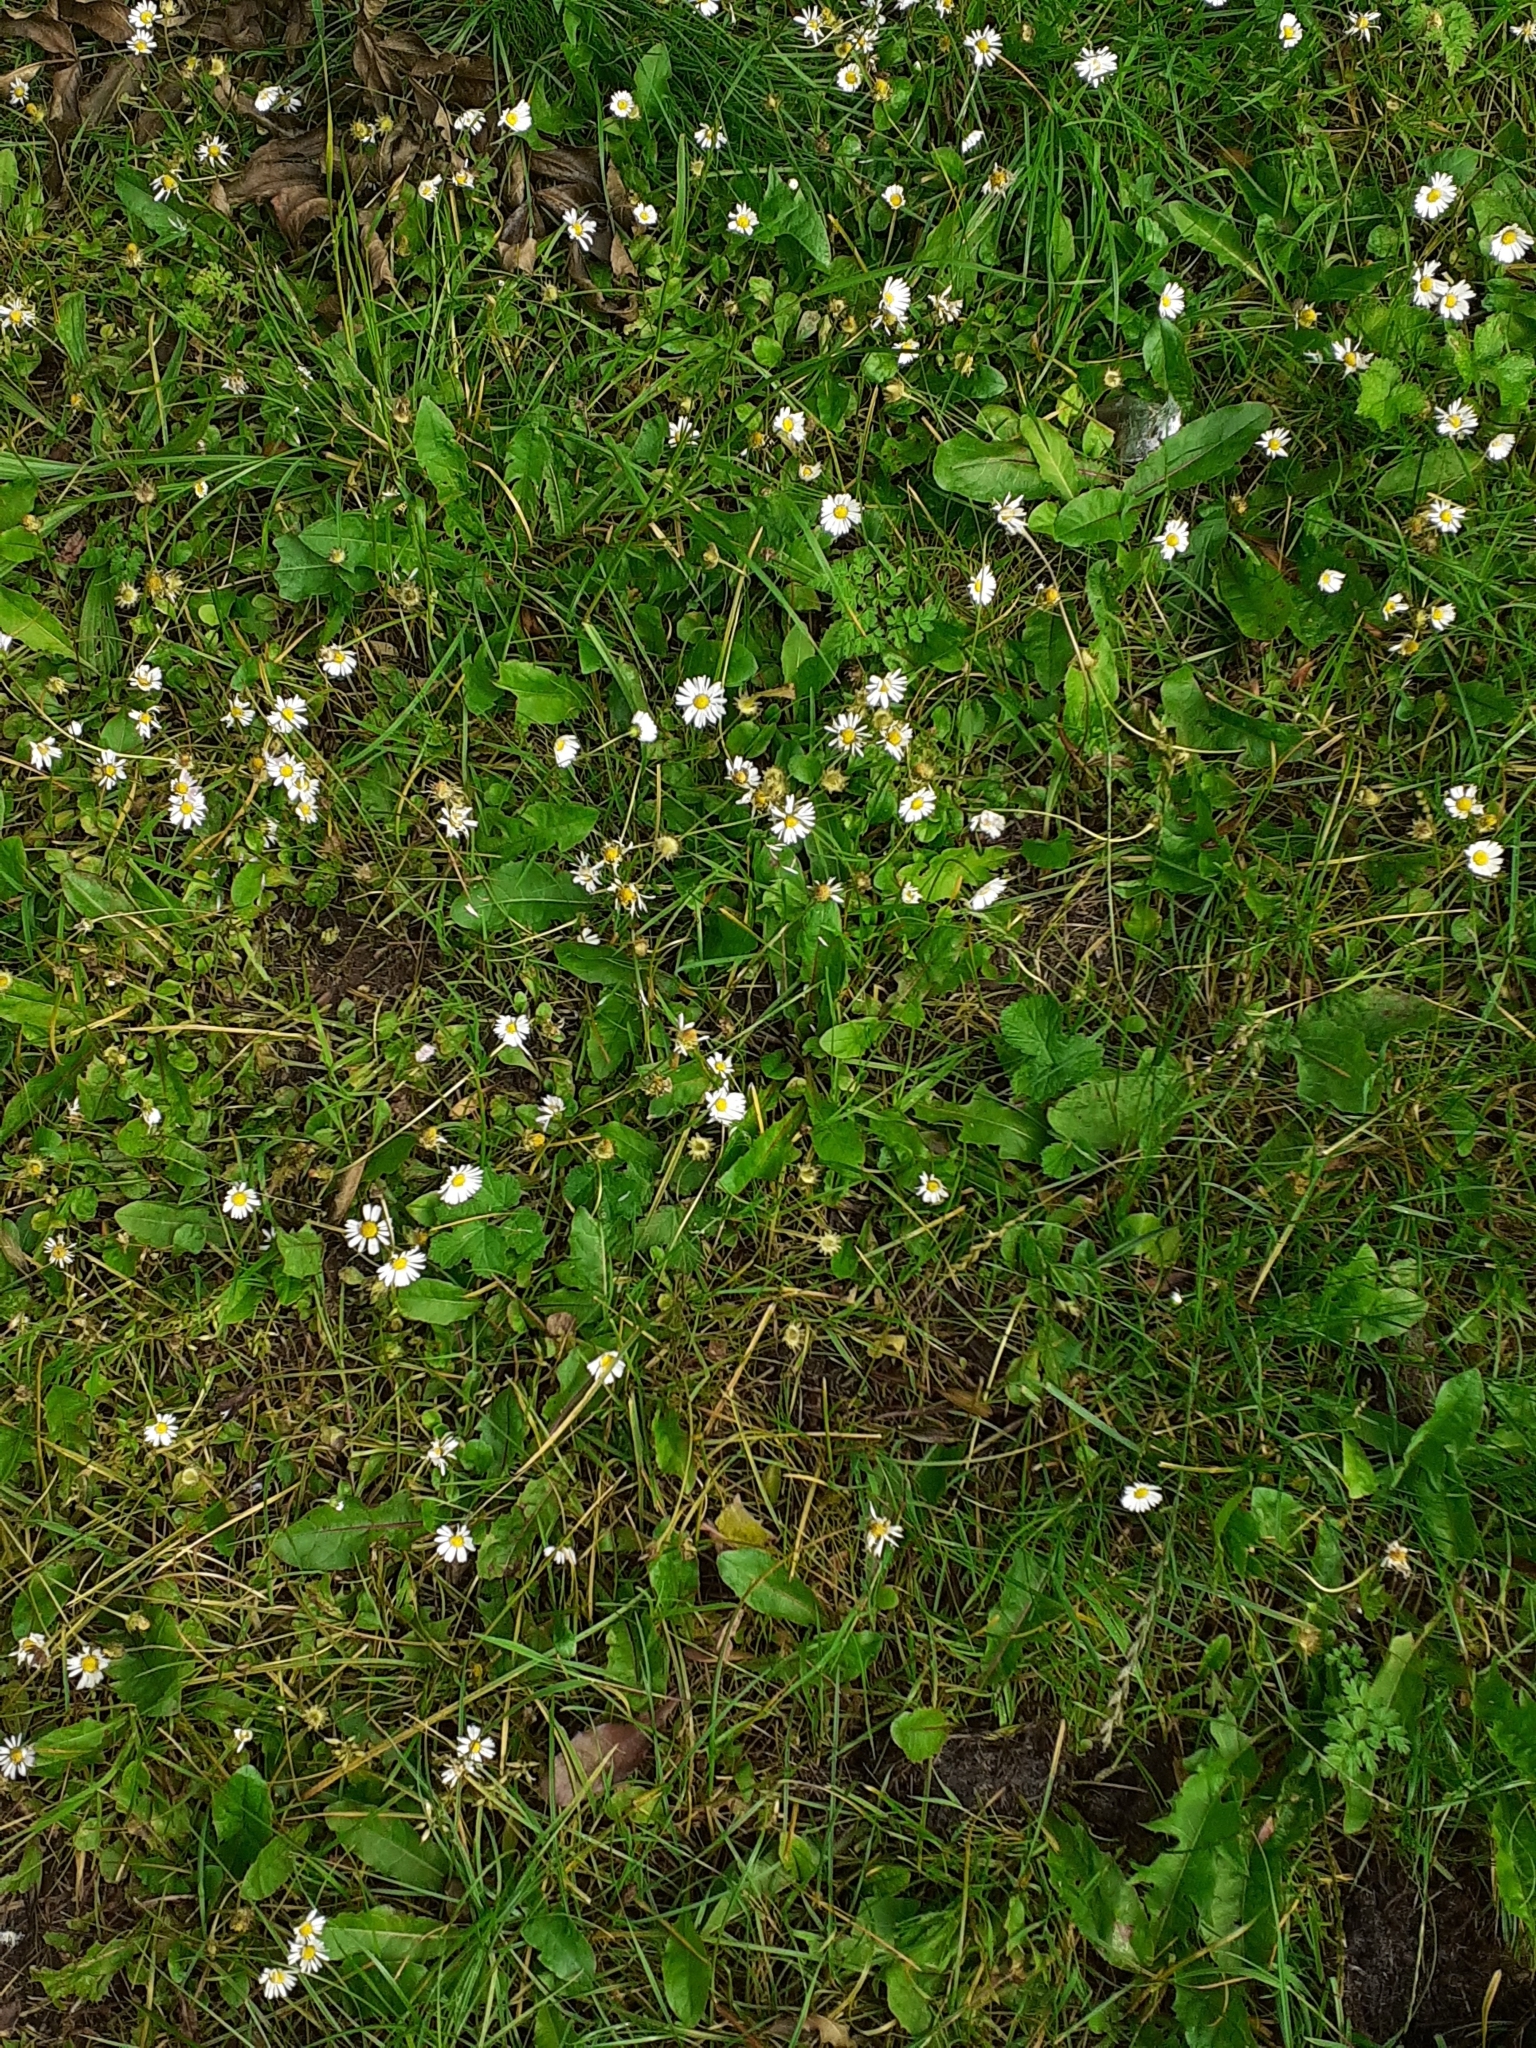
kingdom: Plantae
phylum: Tracheophyta
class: Magnoliopsida
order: Asterales
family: Asteraceae
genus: Bellis
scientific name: Bellis perennis
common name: Lawndaisy
